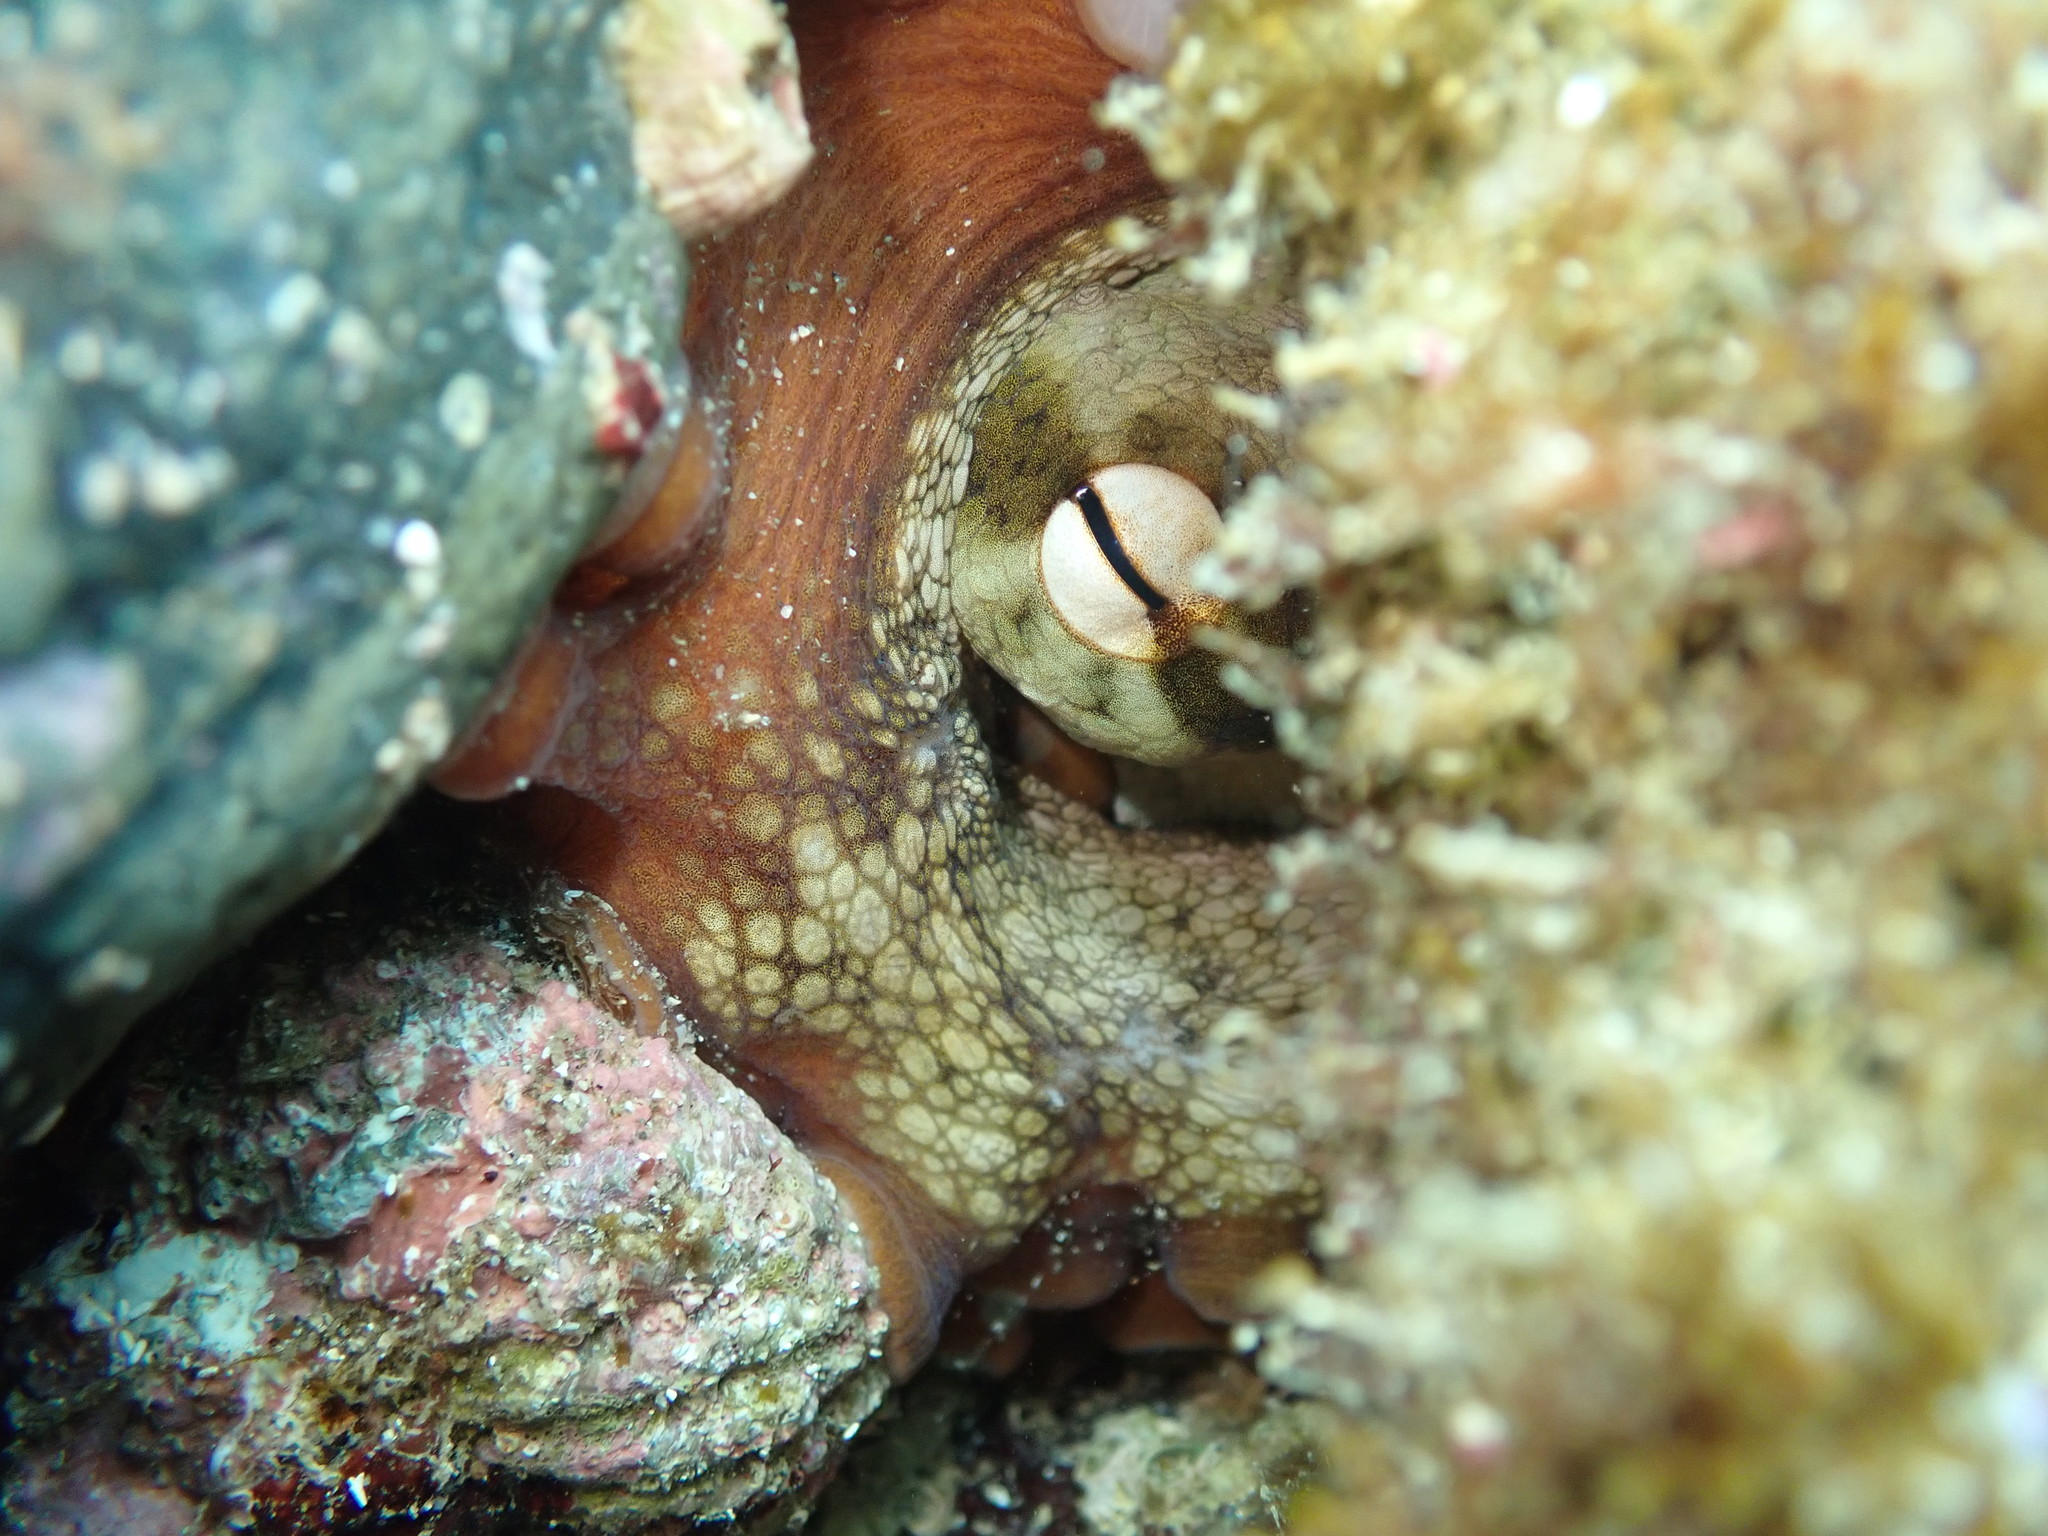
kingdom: Animalia
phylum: Mollusca
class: Cephalopoda
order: Octopoda
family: Octopodidae
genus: Octopus
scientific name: Octopus tetricus
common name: Sydney octopus
